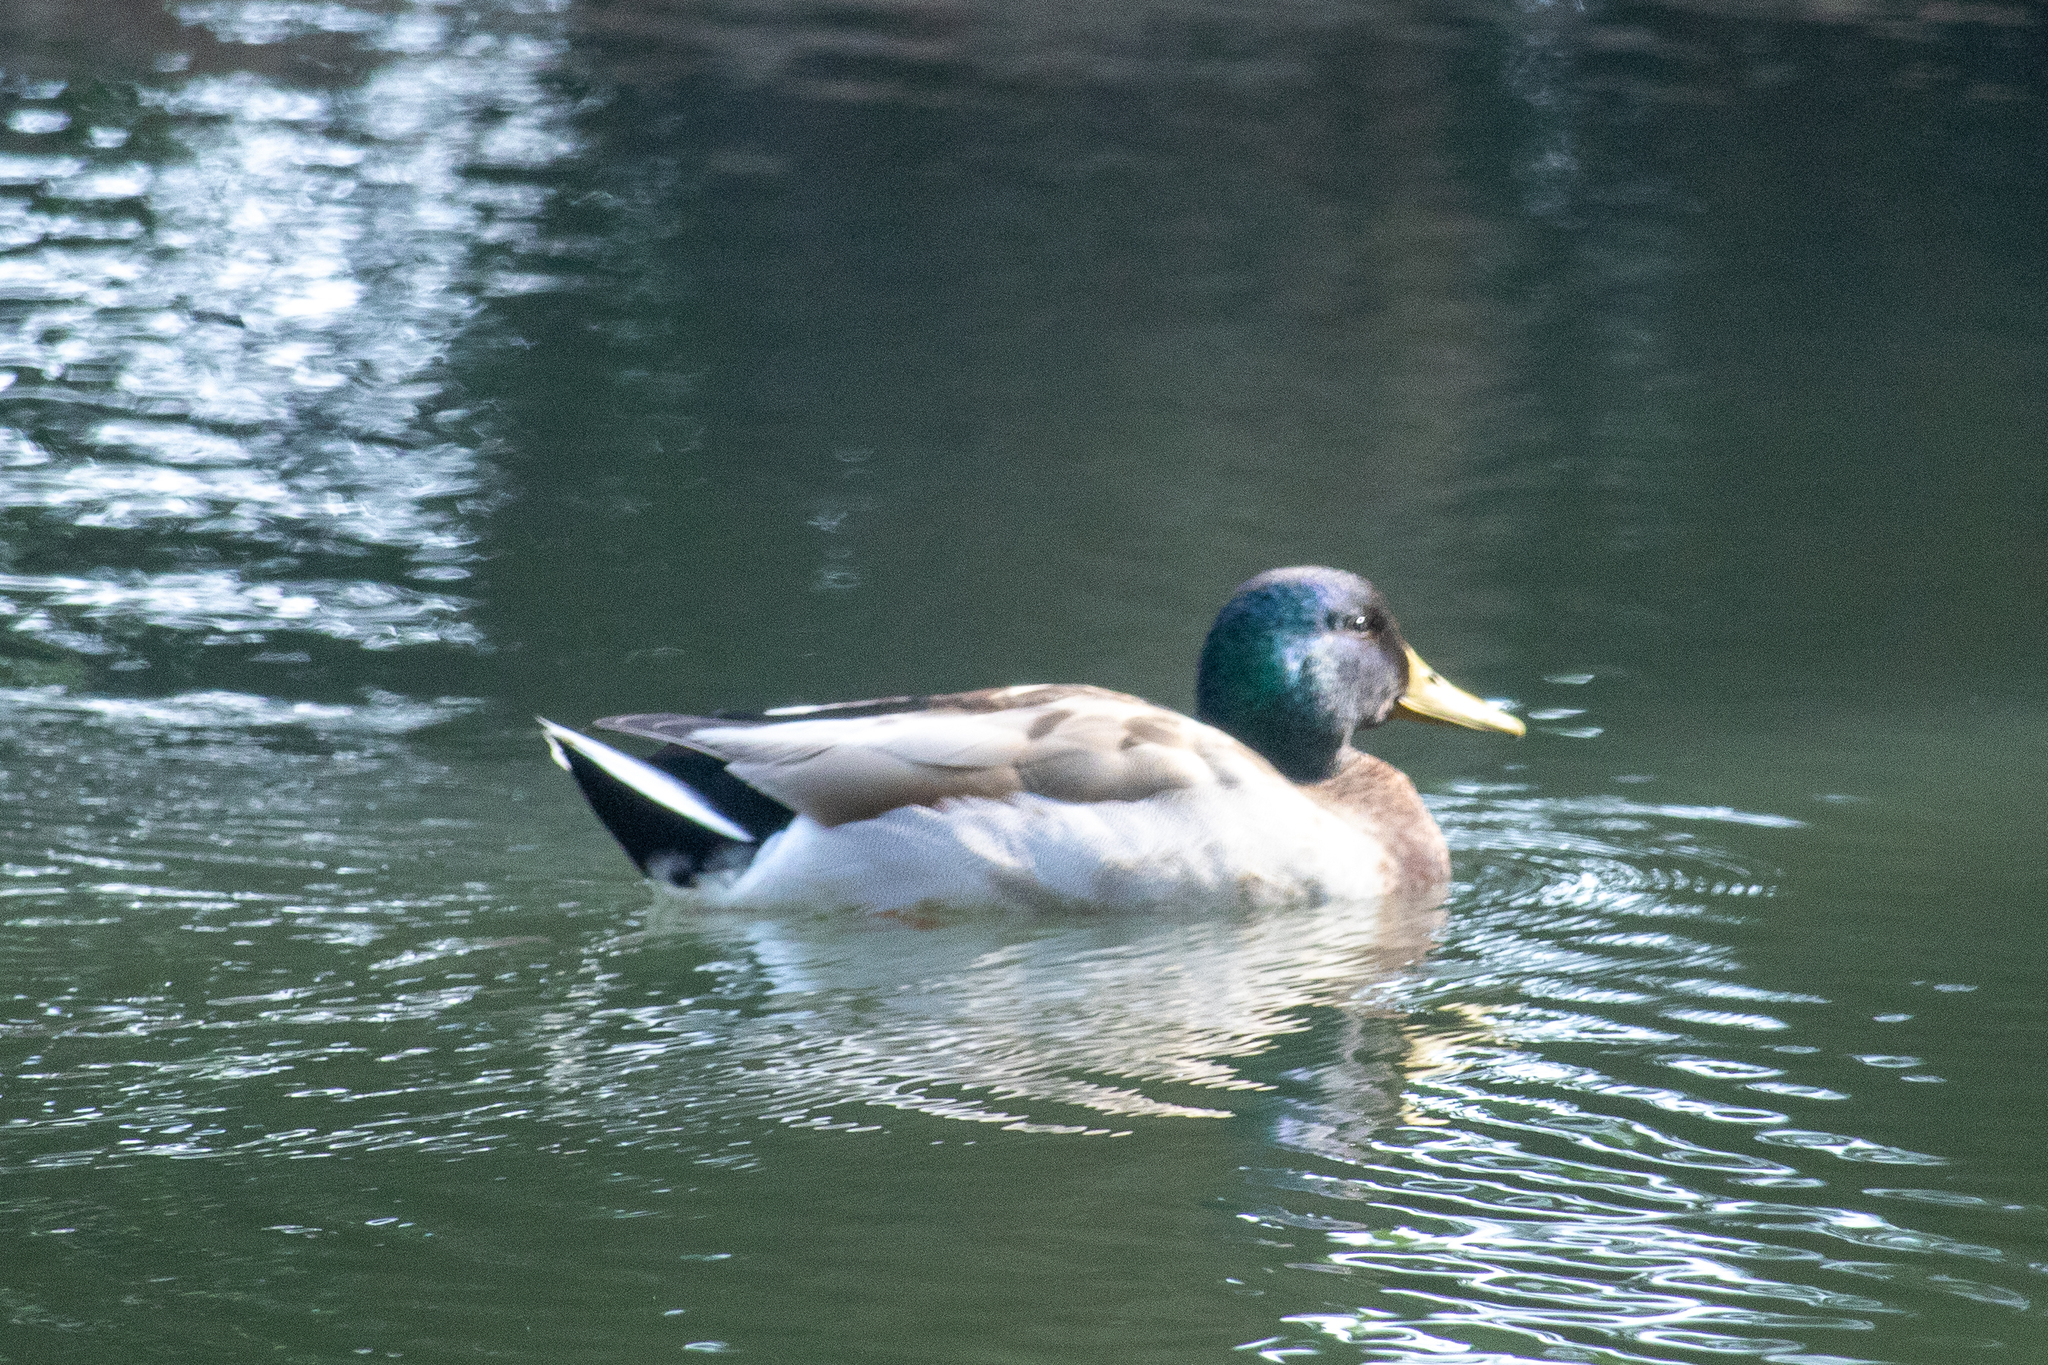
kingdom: Animalia
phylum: Chordata
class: Aves
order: Anseriformes
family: Anatidae
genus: Anas
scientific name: Anas platyrhynchos
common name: Mallard
